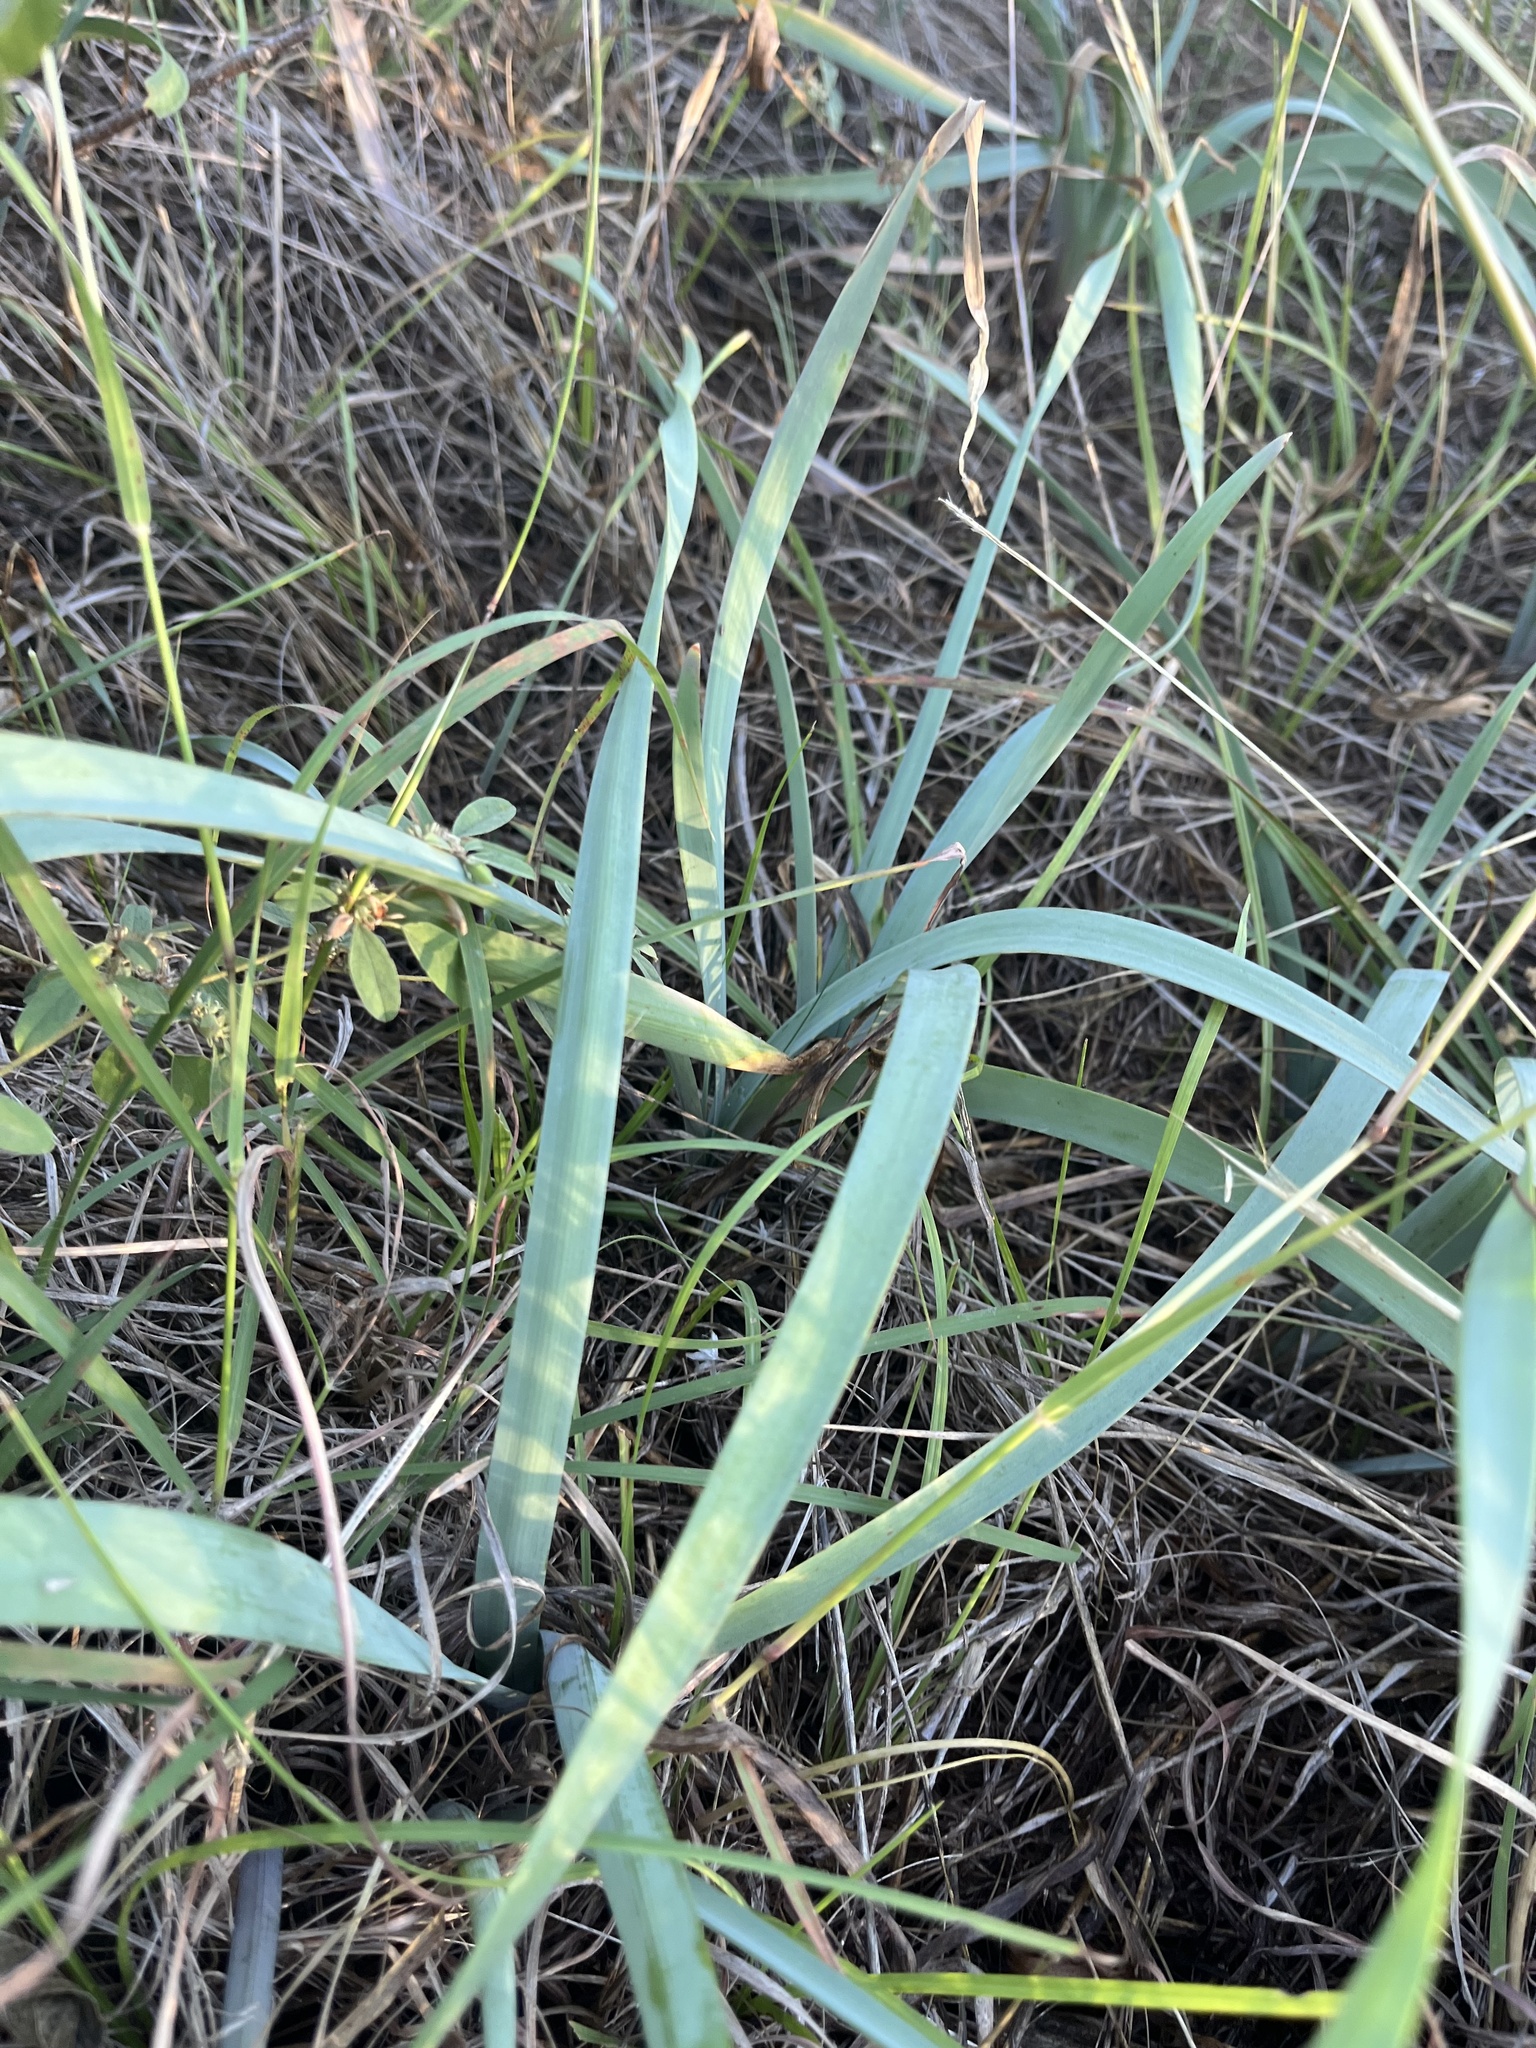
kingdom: Plantae
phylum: Tracheophyta
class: Liliopsida
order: Asparagales
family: Amaryllidaceae
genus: Zephyranthes
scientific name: Zephyranthes drummondii
